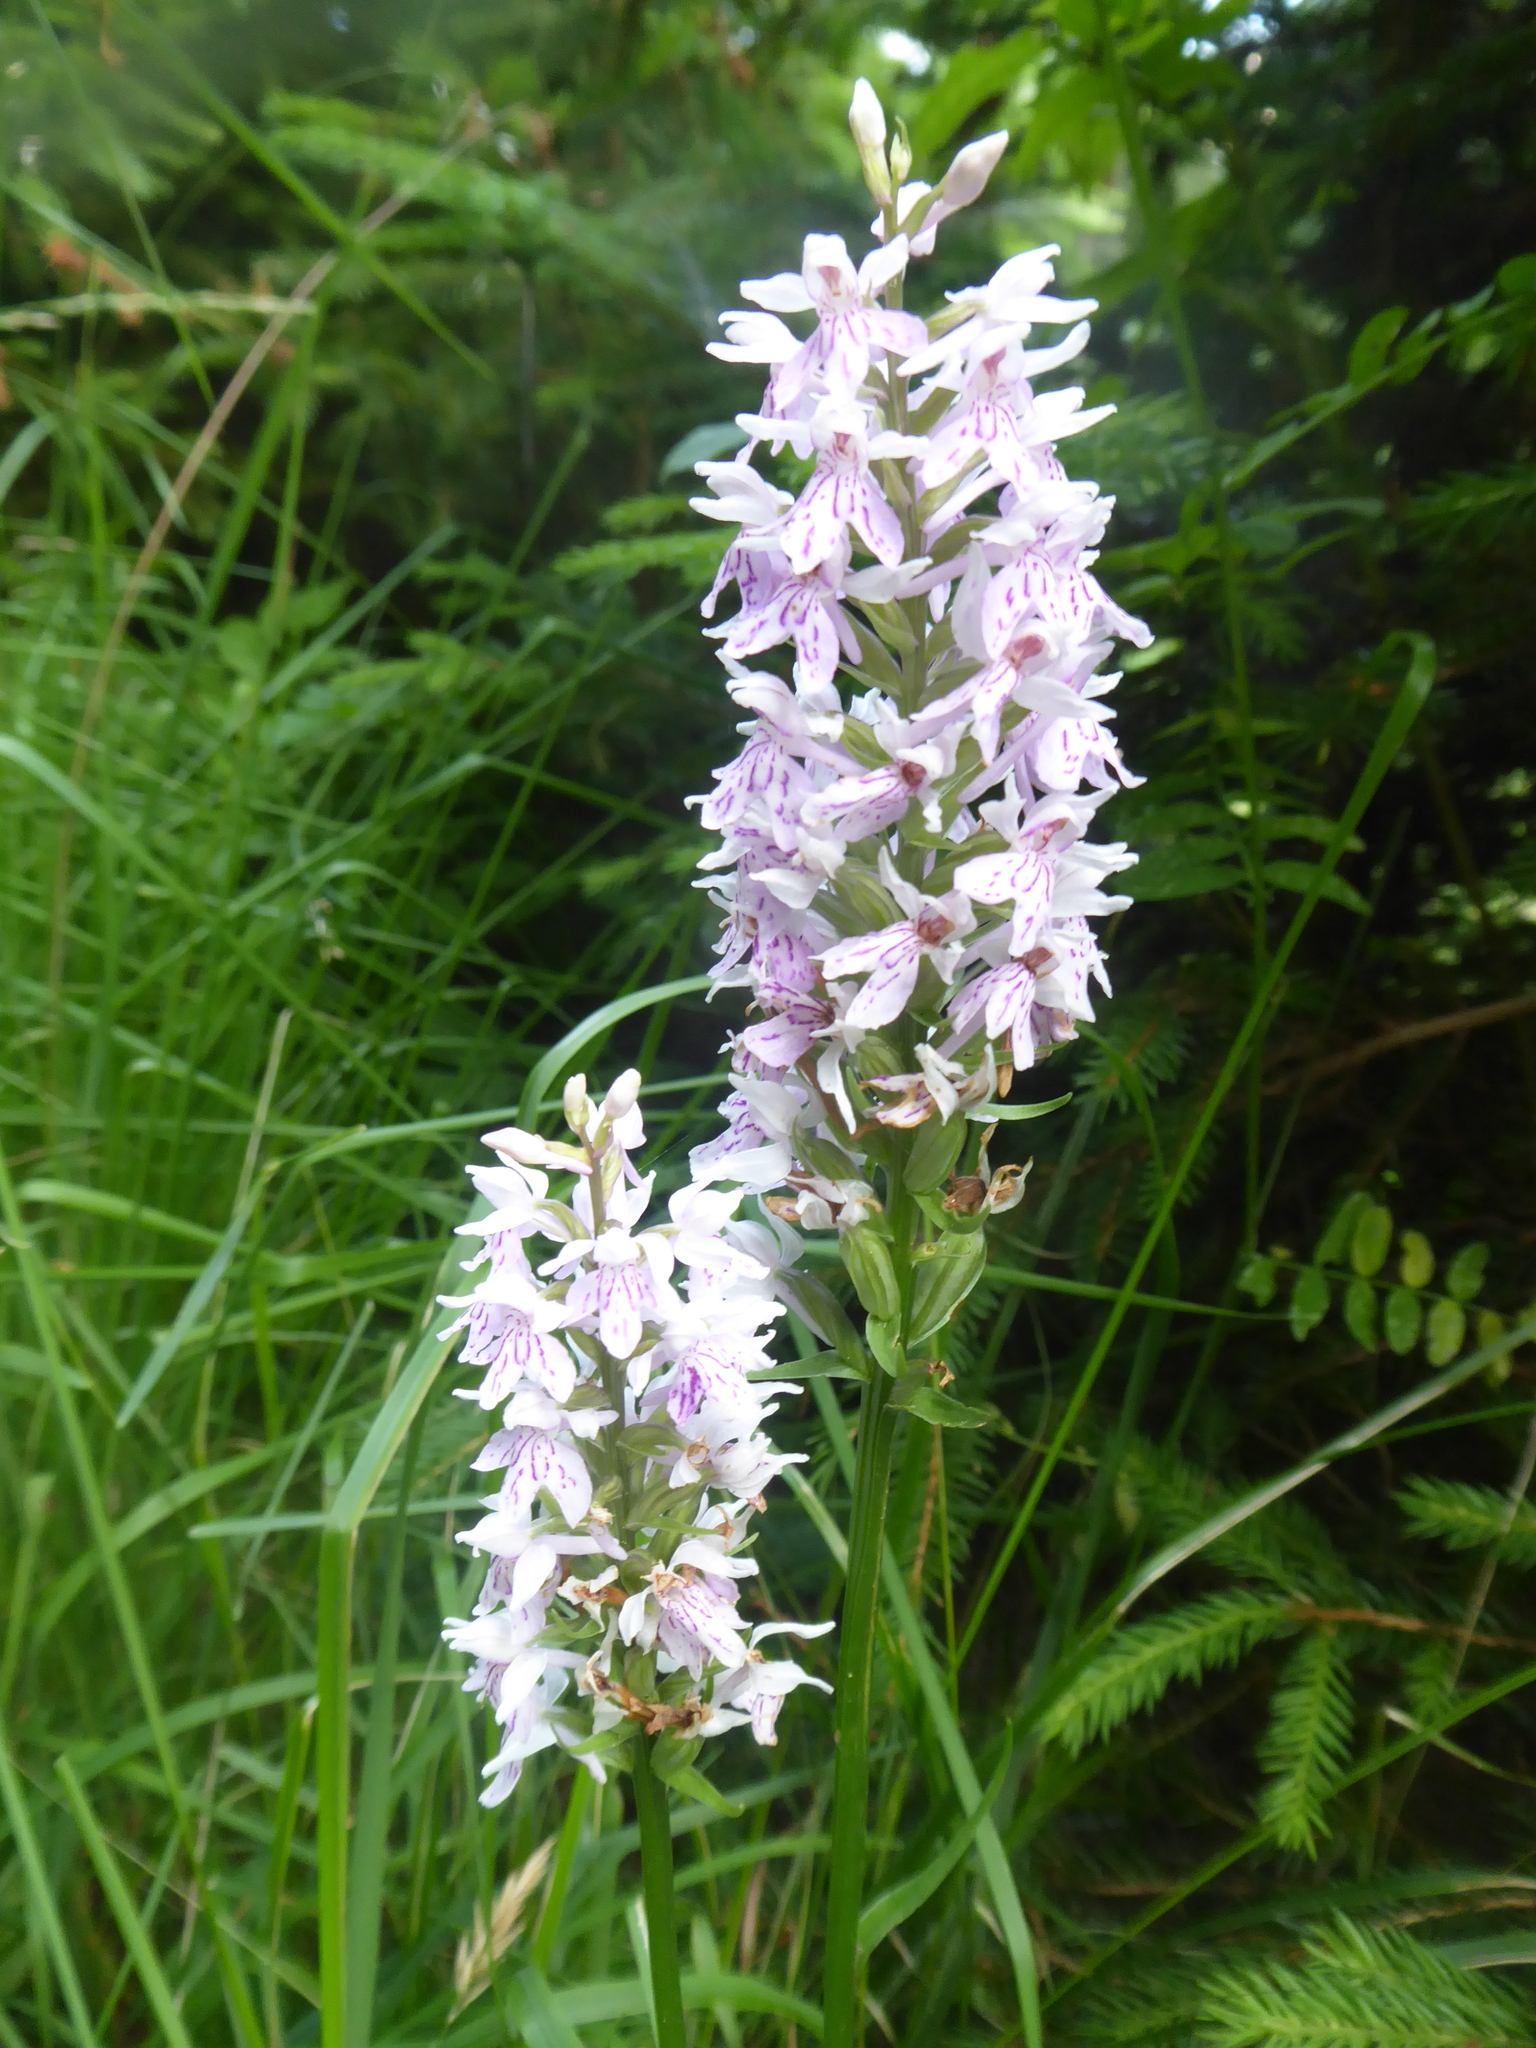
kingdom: Plantae
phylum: Tracheophyta
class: Liliopsida
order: Asparagales
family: Orchidaceae
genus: Dactylorhiza
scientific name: Dactylorhiza maculata
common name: Heath spotted-orchid
